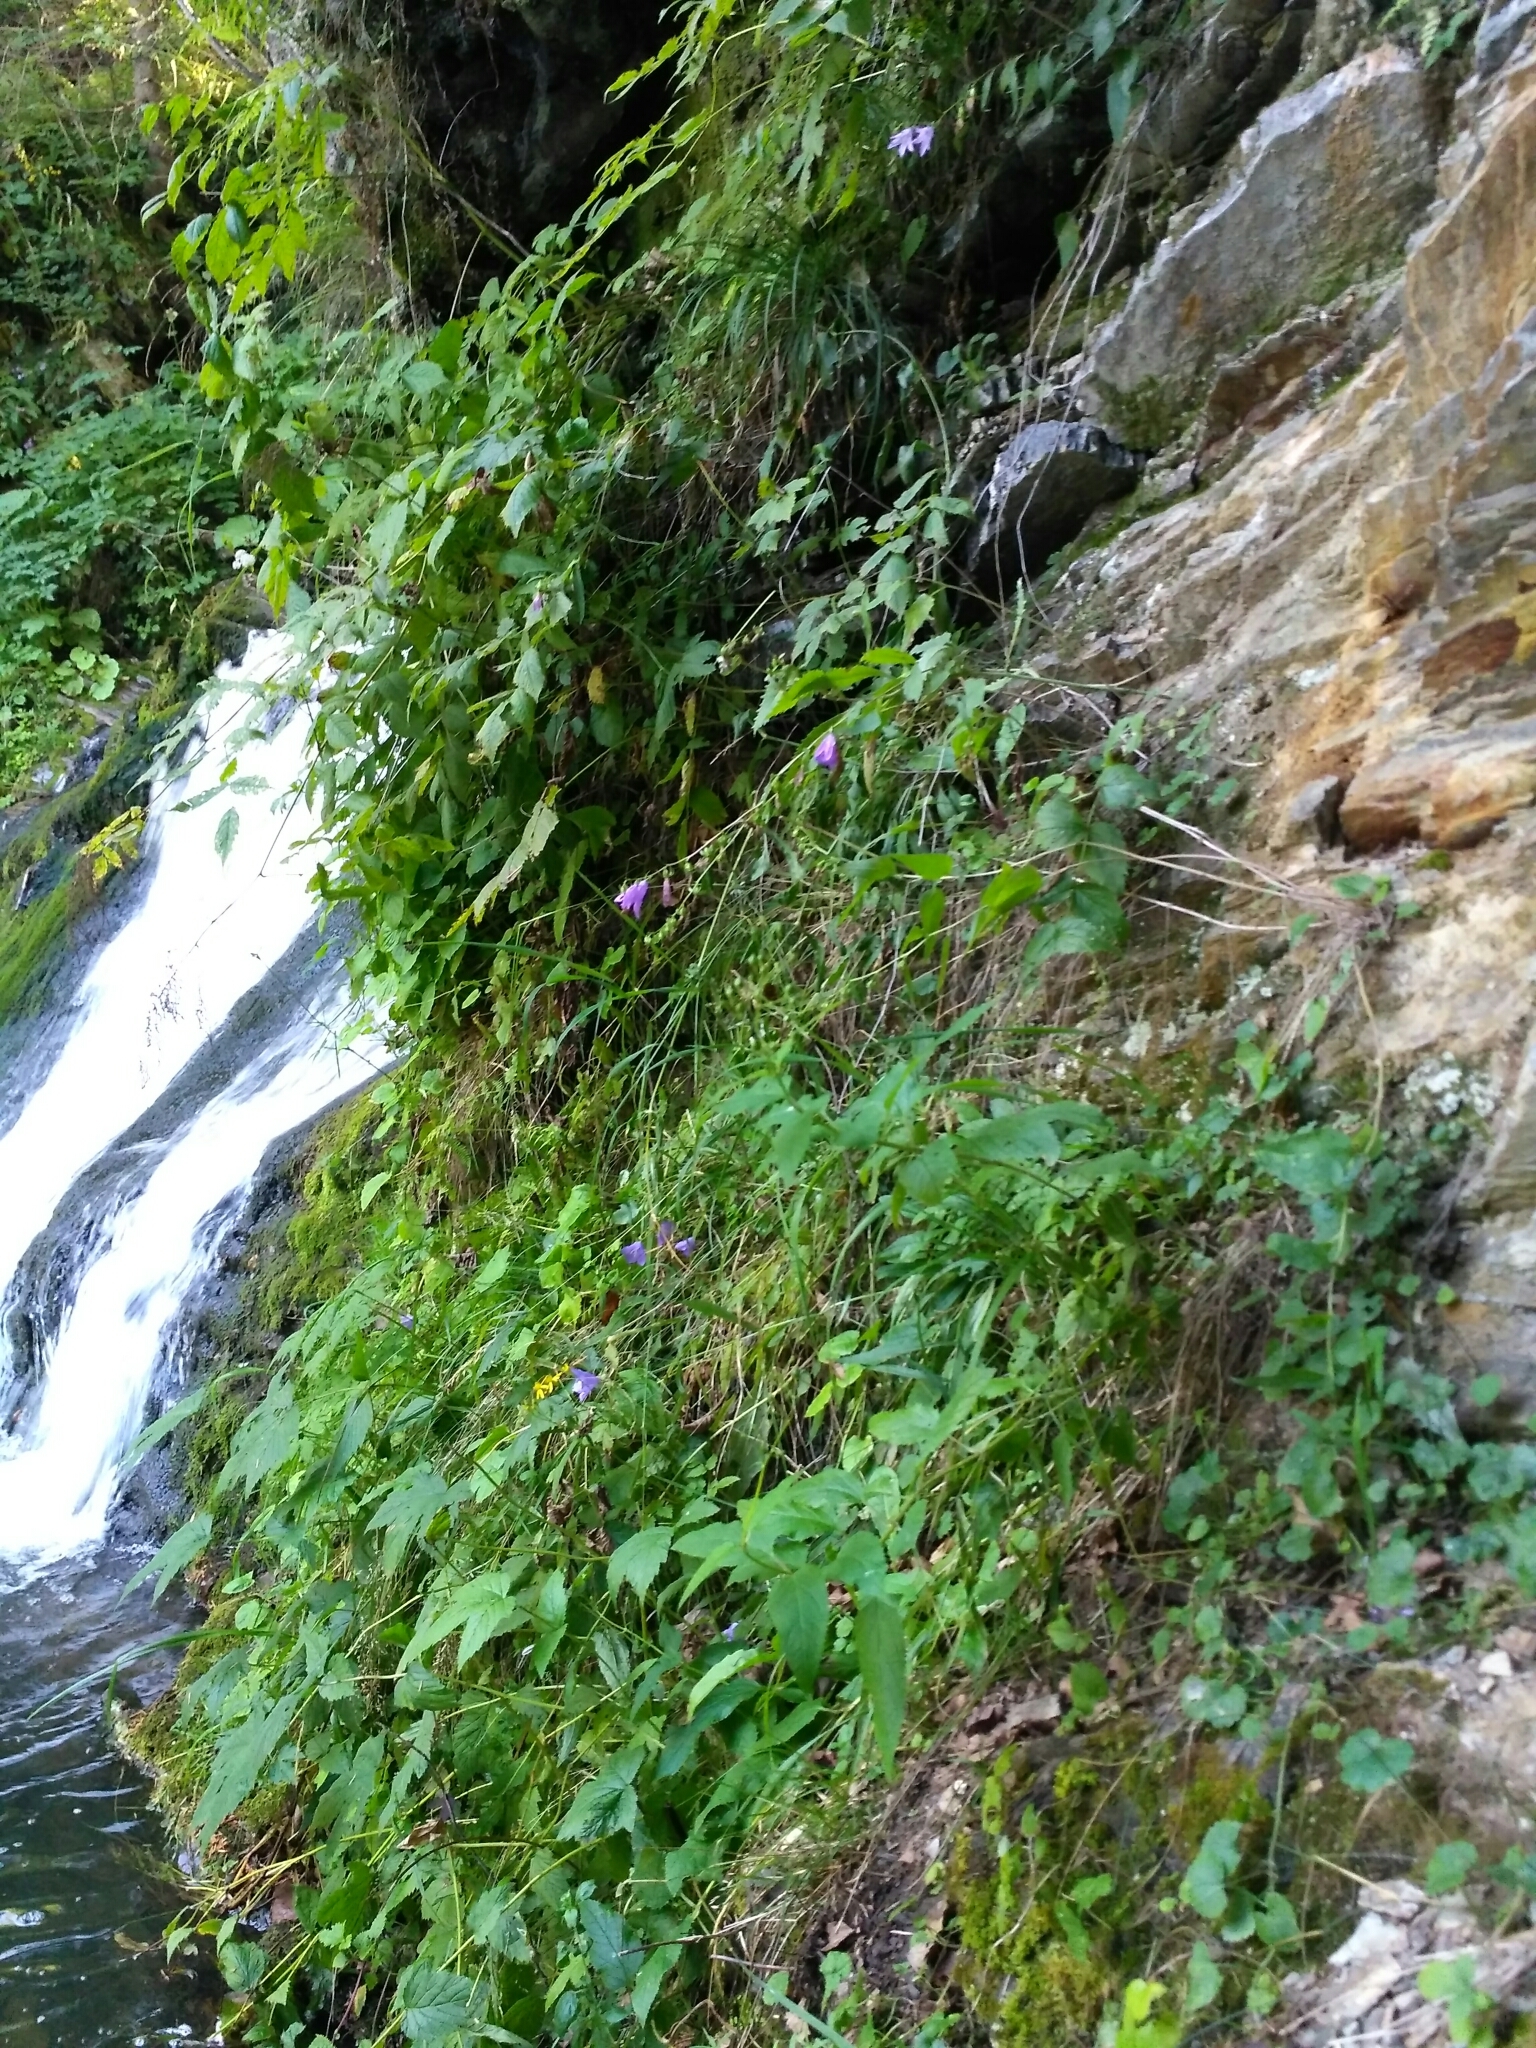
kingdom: Plantae
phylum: Tracheophyta
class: Magnoliopsida
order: Lamiales
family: Scrophulariaceae
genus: Scrophularia
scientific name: Scrophularia nodosa
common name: Common figwort
